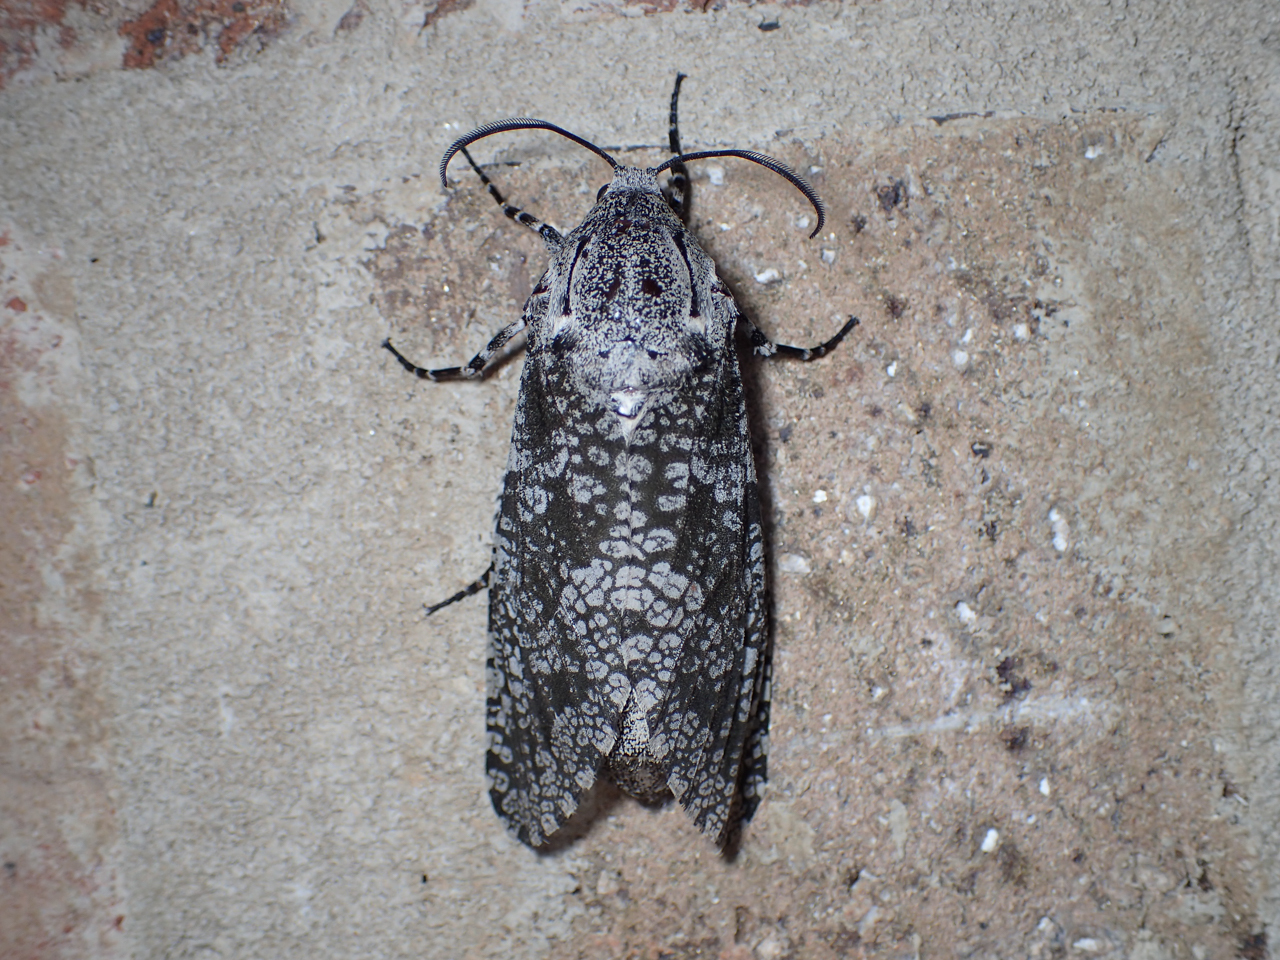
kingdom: Animalia
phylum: Arthropoda
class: Insecta
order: Lepidoptera
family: Cossidae
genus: Prionoxystus
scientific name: Prionoxystus robiniae
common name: Carpenterworm
